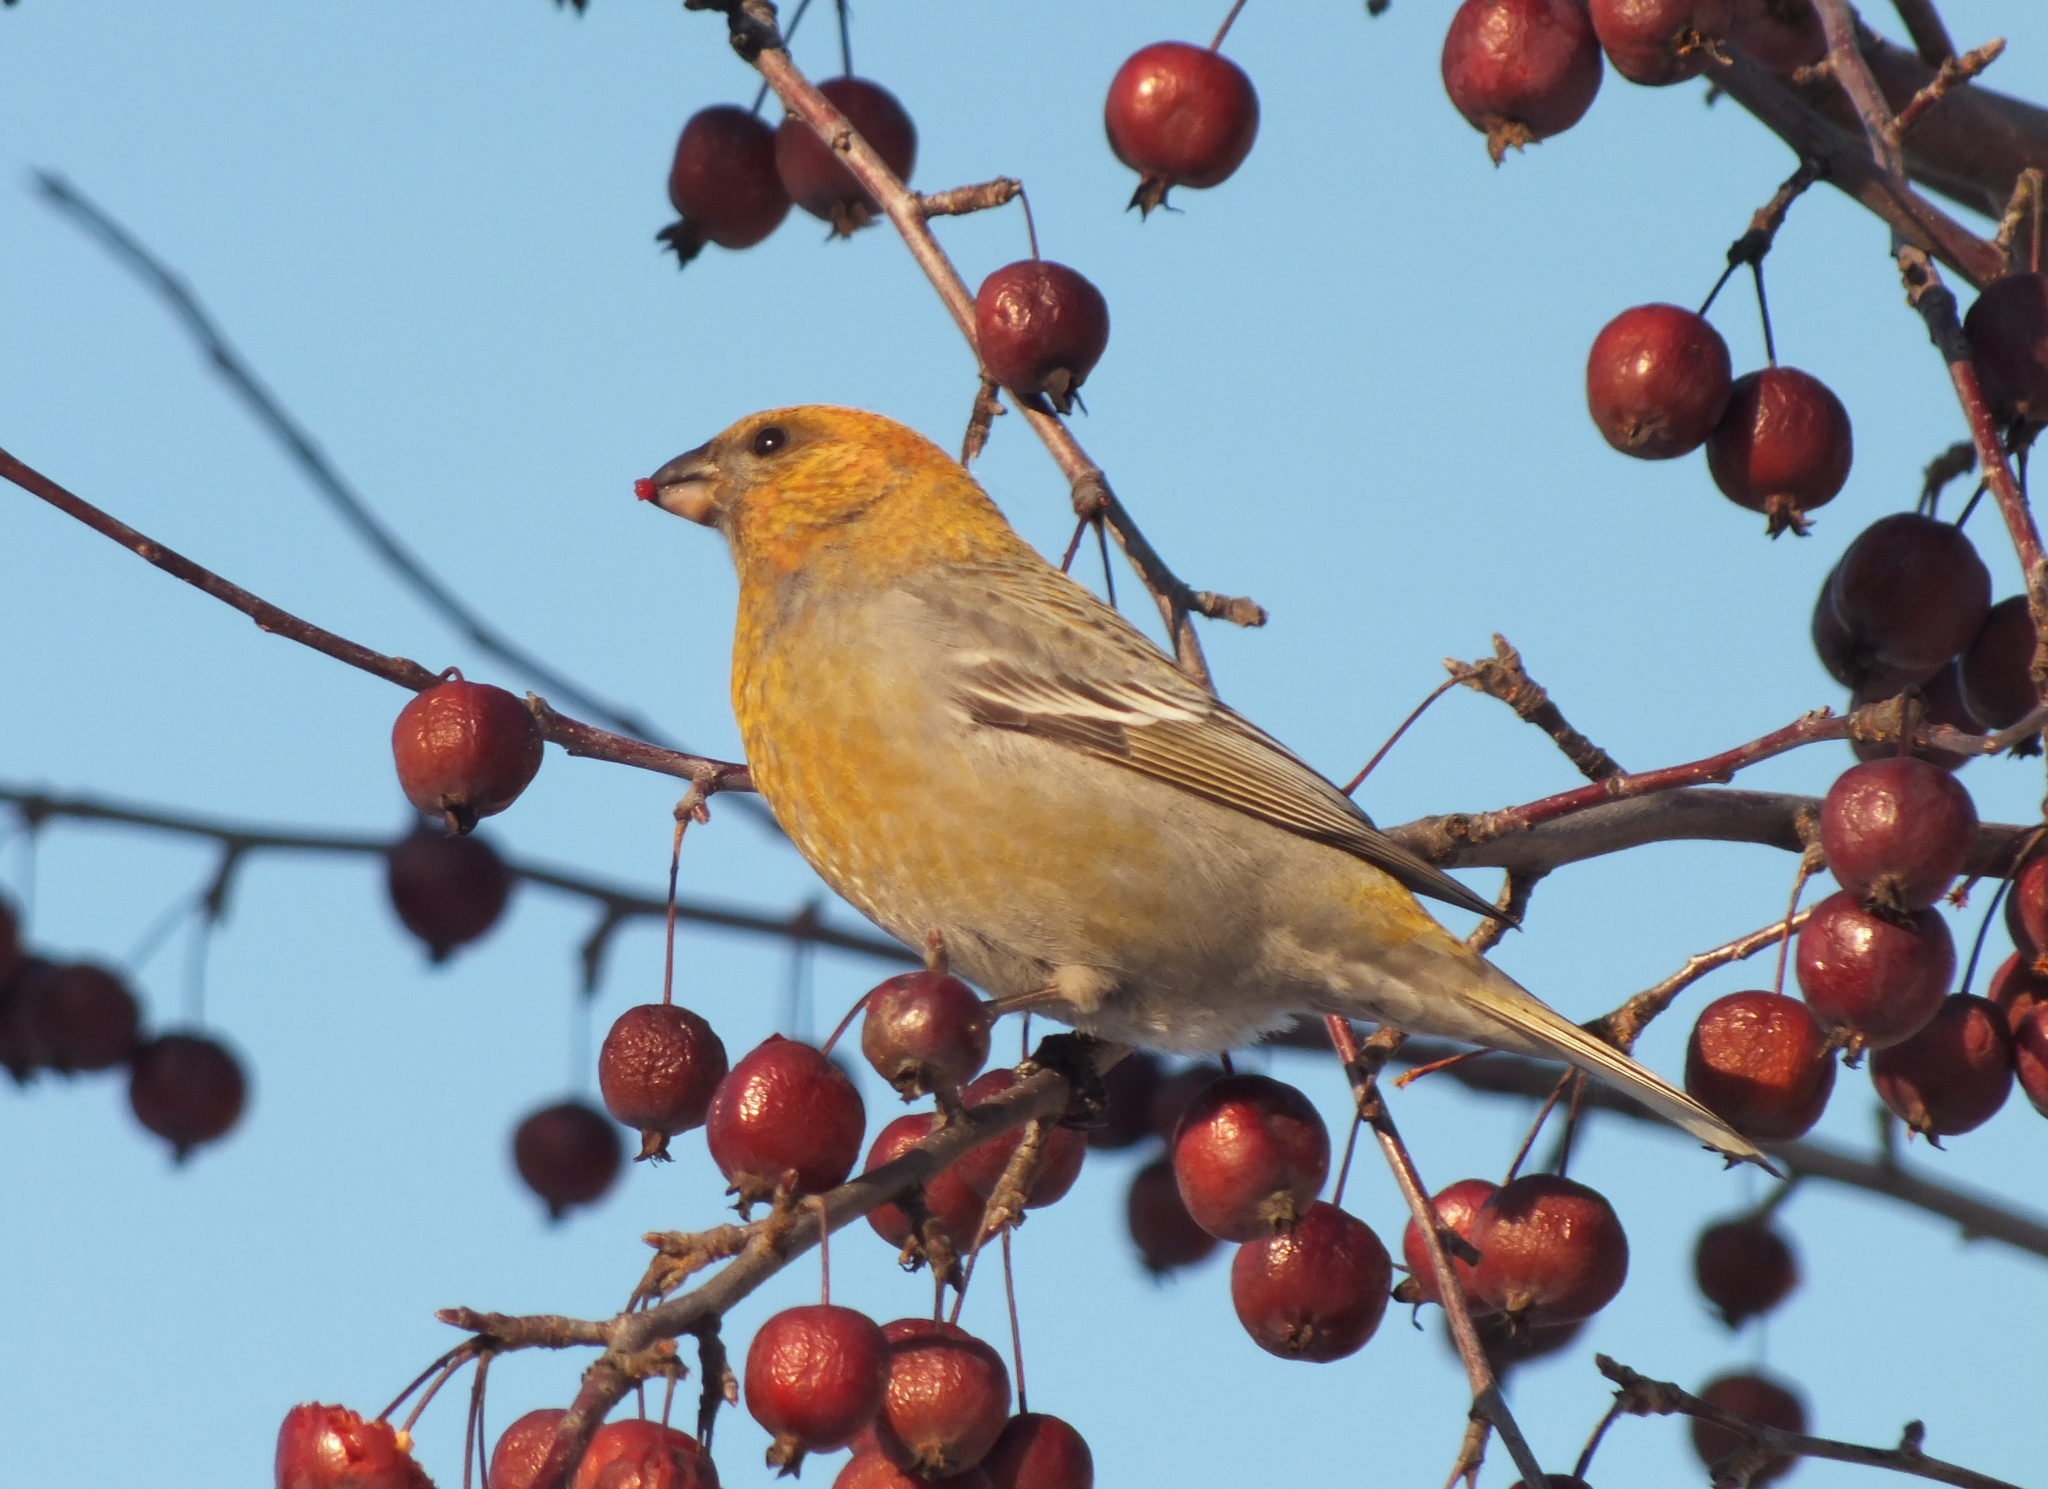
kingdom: Animalia
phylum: Chordata
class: Aves
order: Passeriformes
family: Fringillidae
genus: Pinicola
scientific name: Pinicola enucleator
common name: Pine grosbeak
